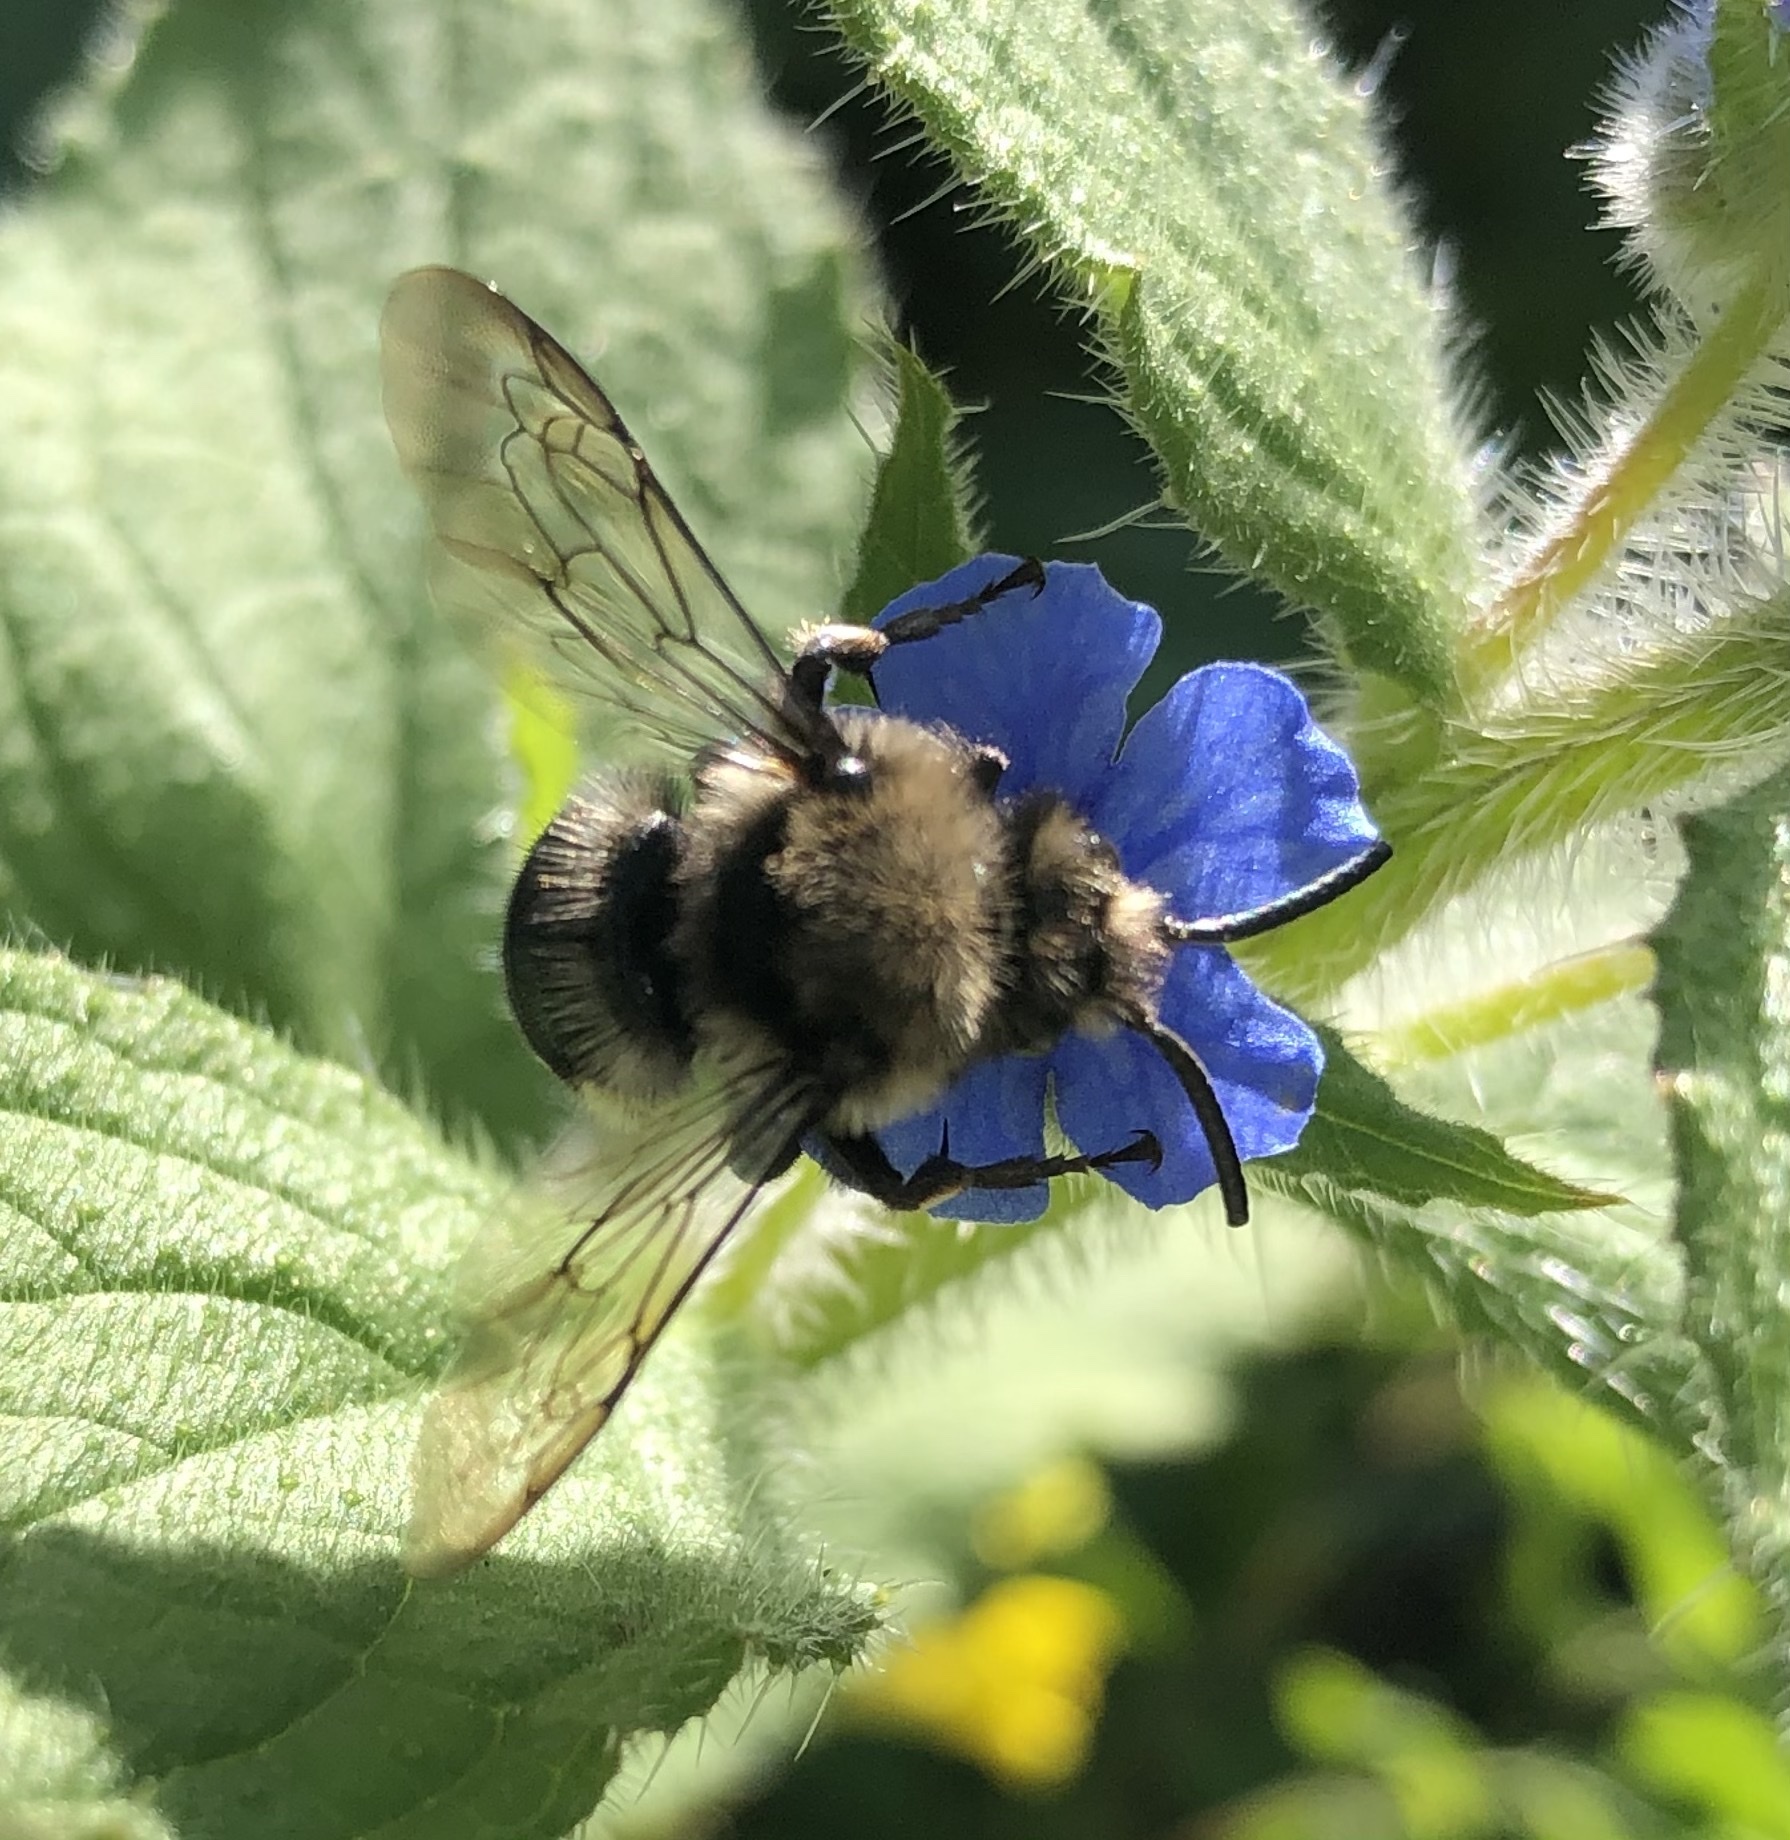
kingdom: Animalia
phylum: Arthropoda
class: Insecta
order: Hymenoptera
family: Apidae
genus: Melecta
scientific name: Melecta albifrons
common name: Common mourning bee
